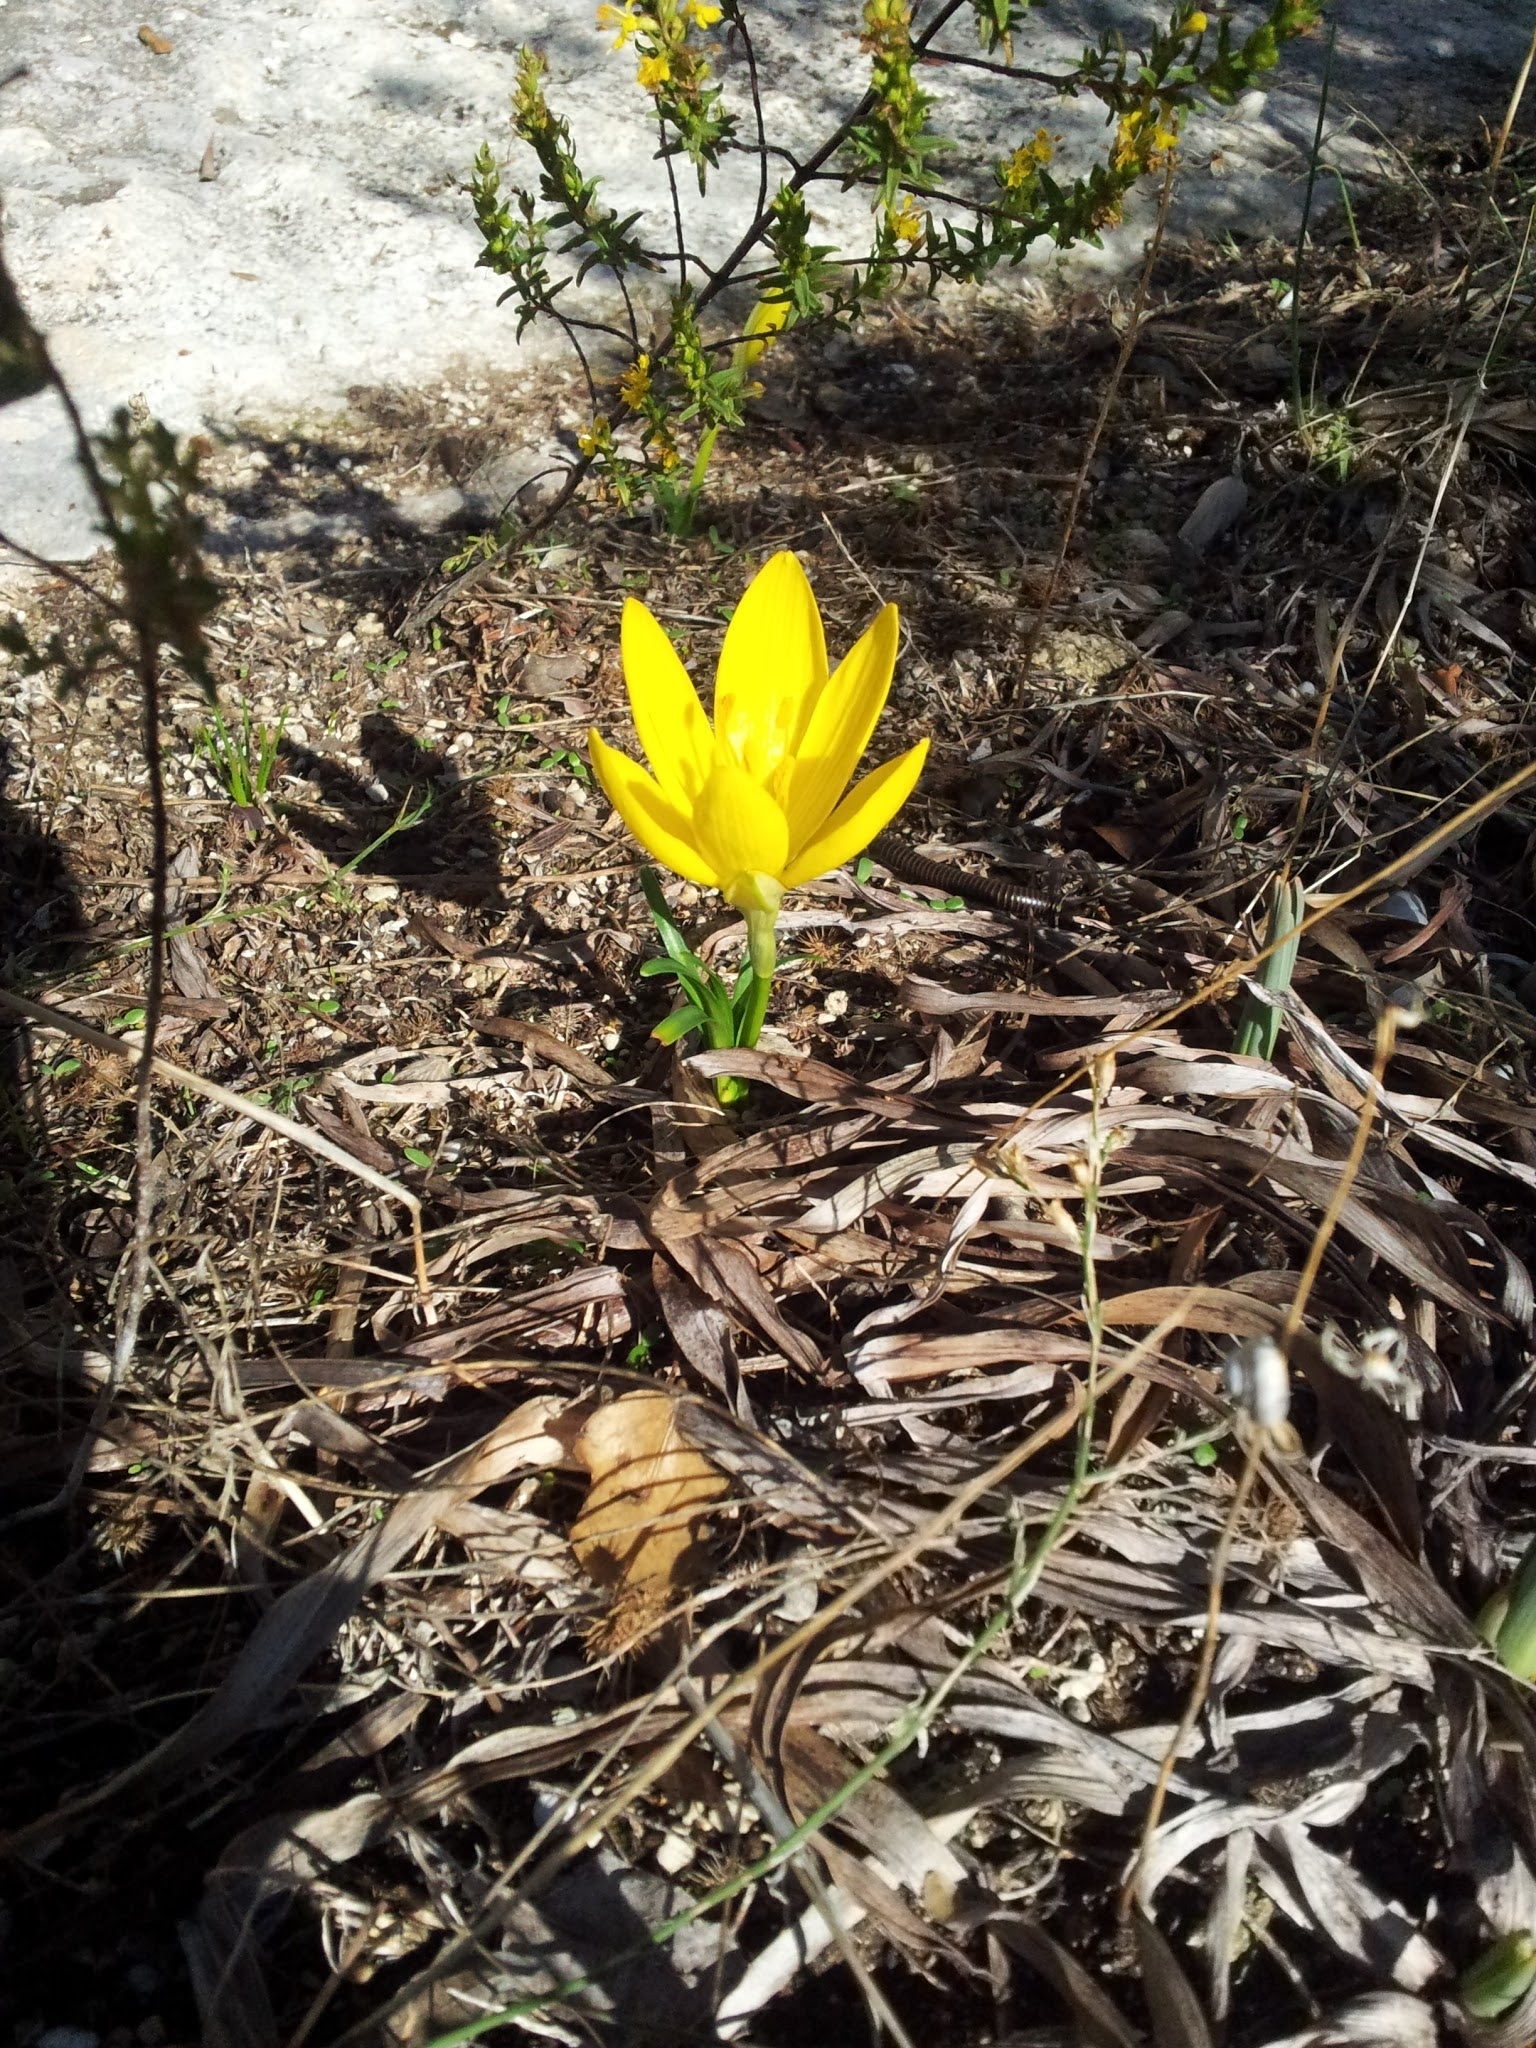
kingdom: Plantae
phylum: Tracheophyta
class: Liliopsida
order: Asparagales
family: Amaryllidaceae
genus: Sternbergia
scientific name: Sternbergia lutea
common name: Winter daffodil
